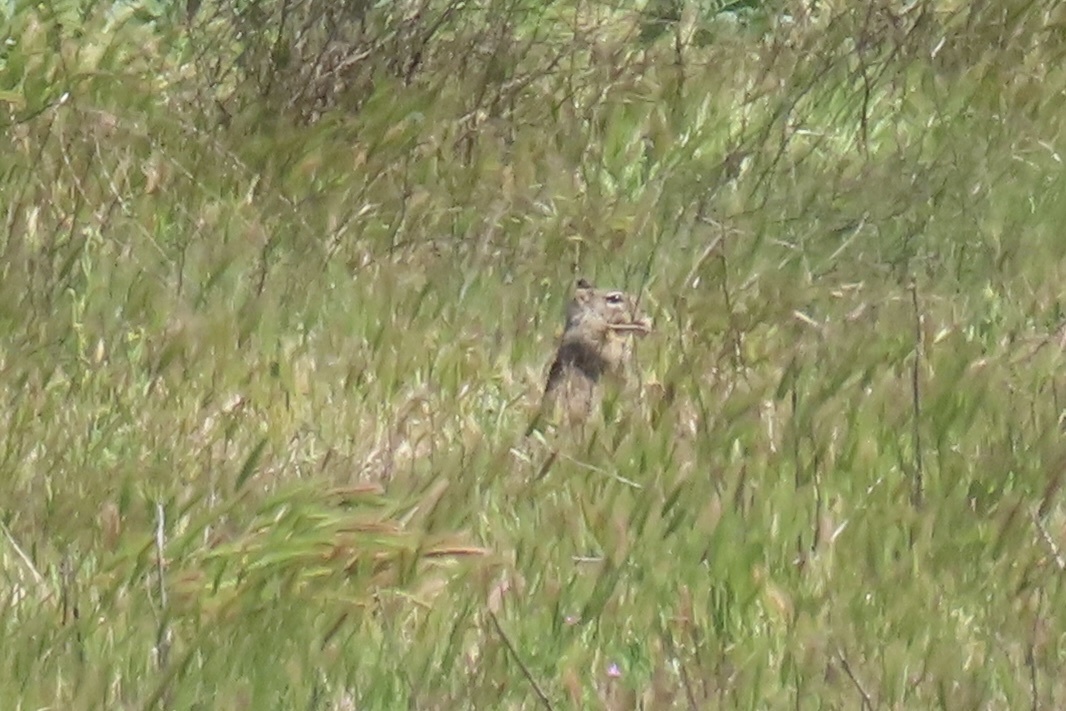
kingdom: Animalia
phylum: Chordata
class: Mammalia
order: Rodentia
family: Sciuridae
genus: Otospermophilus
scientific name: Otospermophilus beecheyi
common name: California ground squirrel
